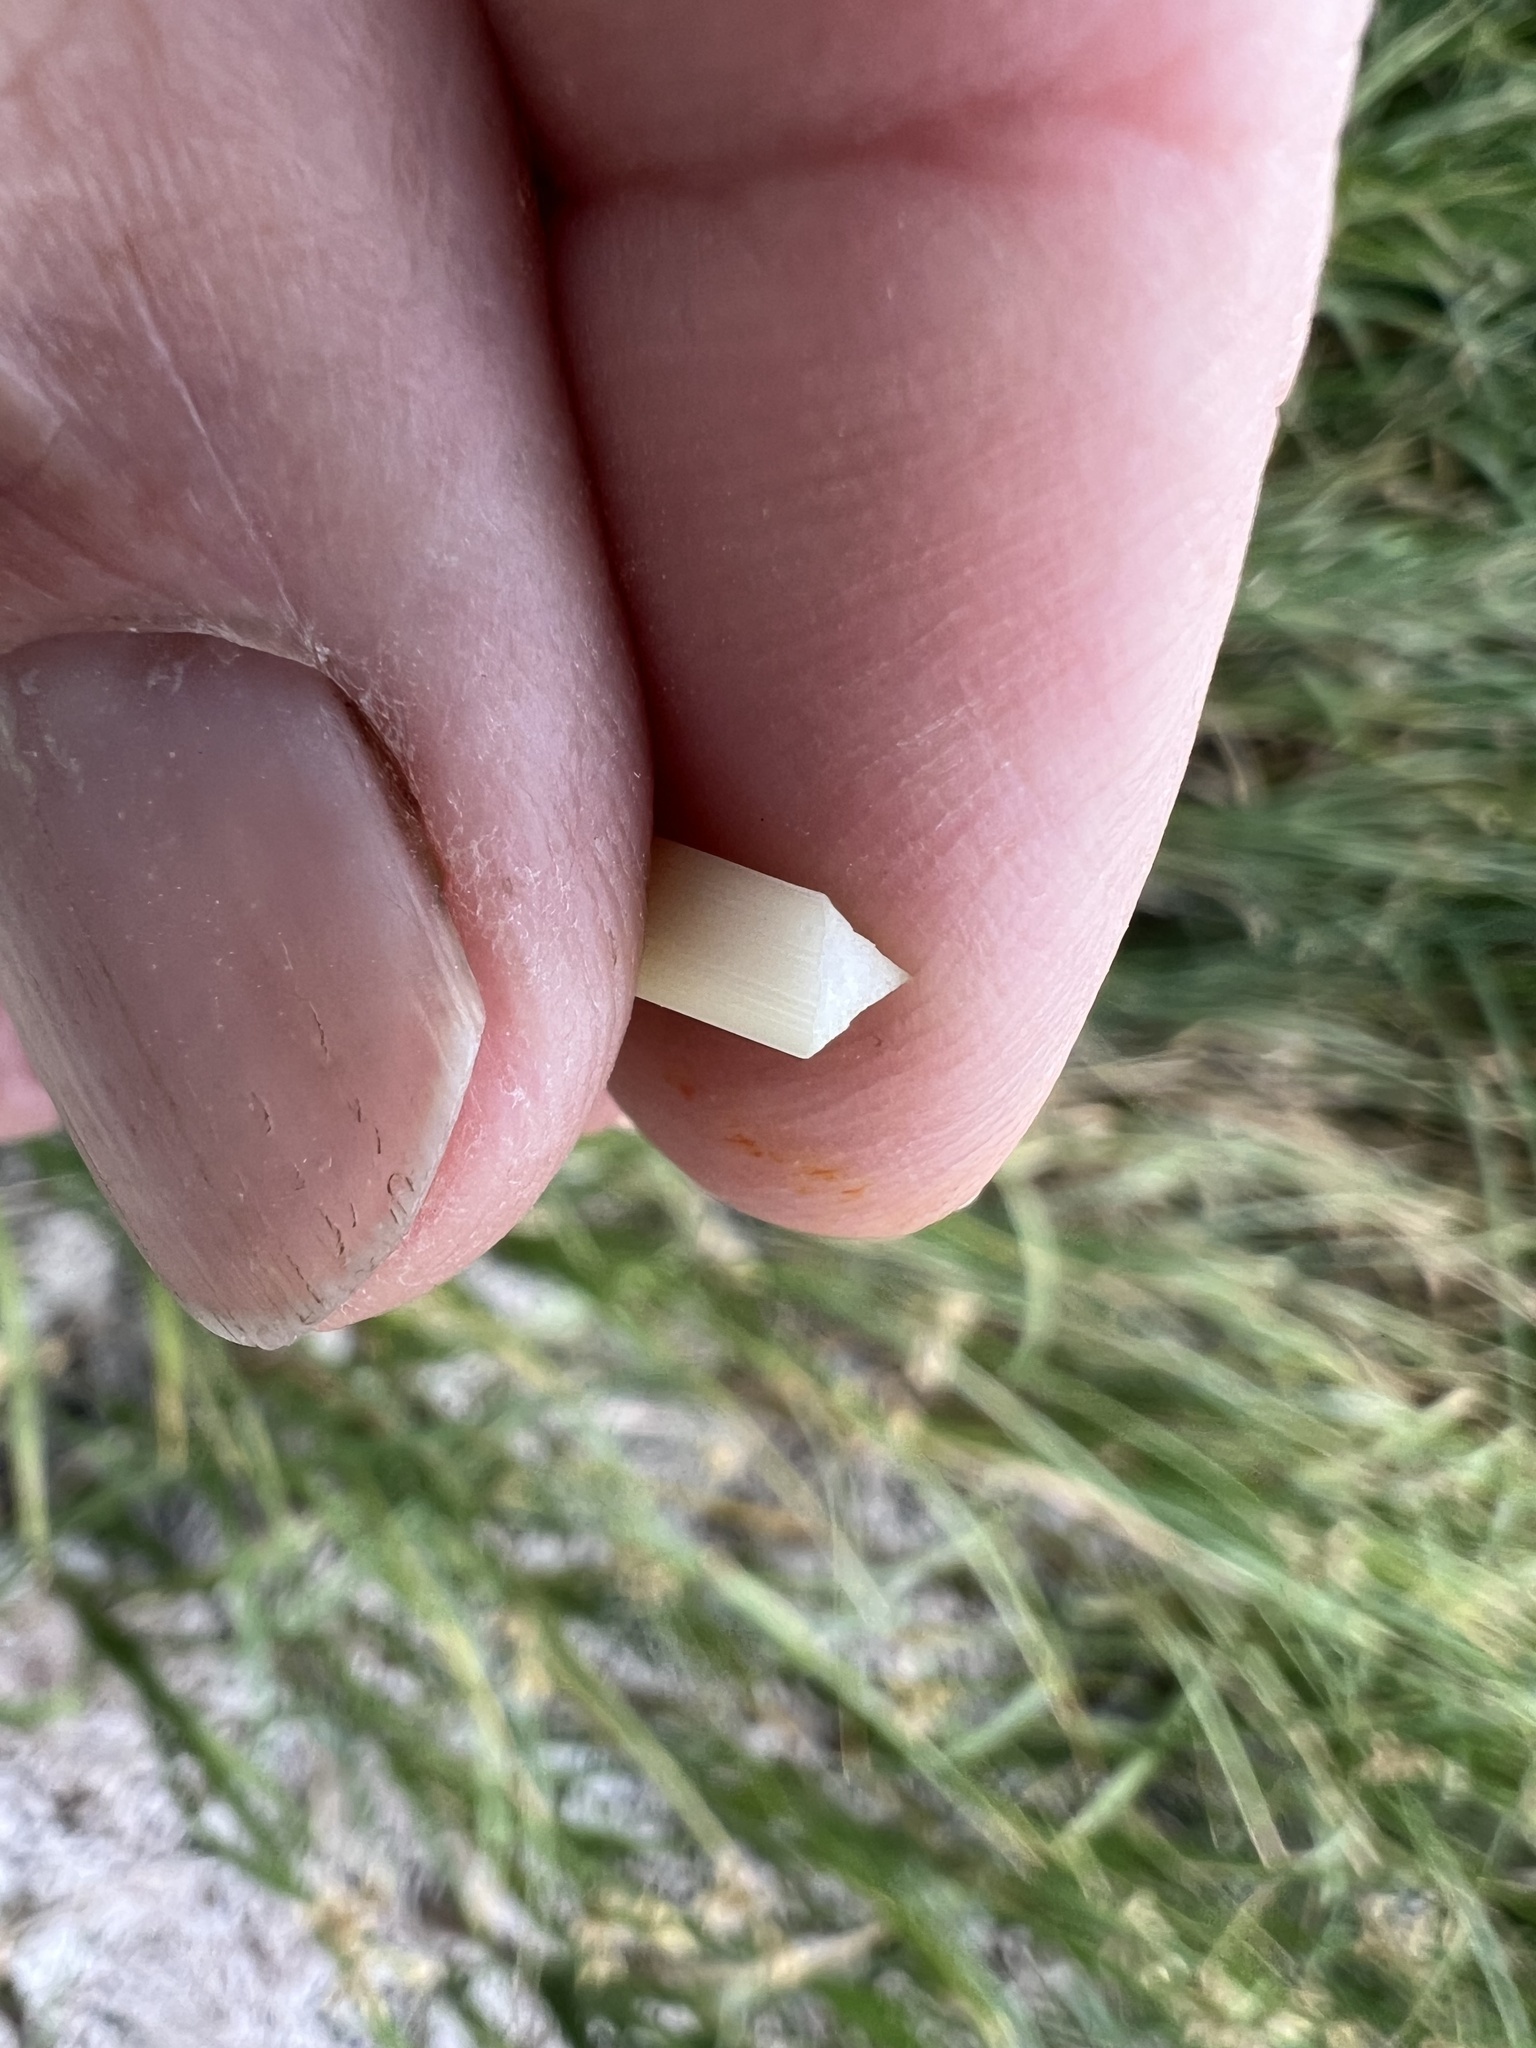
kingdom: Plantae
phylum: Tracheophyta
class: Liliopsida
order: Poales
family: Cyperaceae
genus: Bolboschoenus
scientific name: Bolboschoenus maritimus
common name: Sea club-rush
